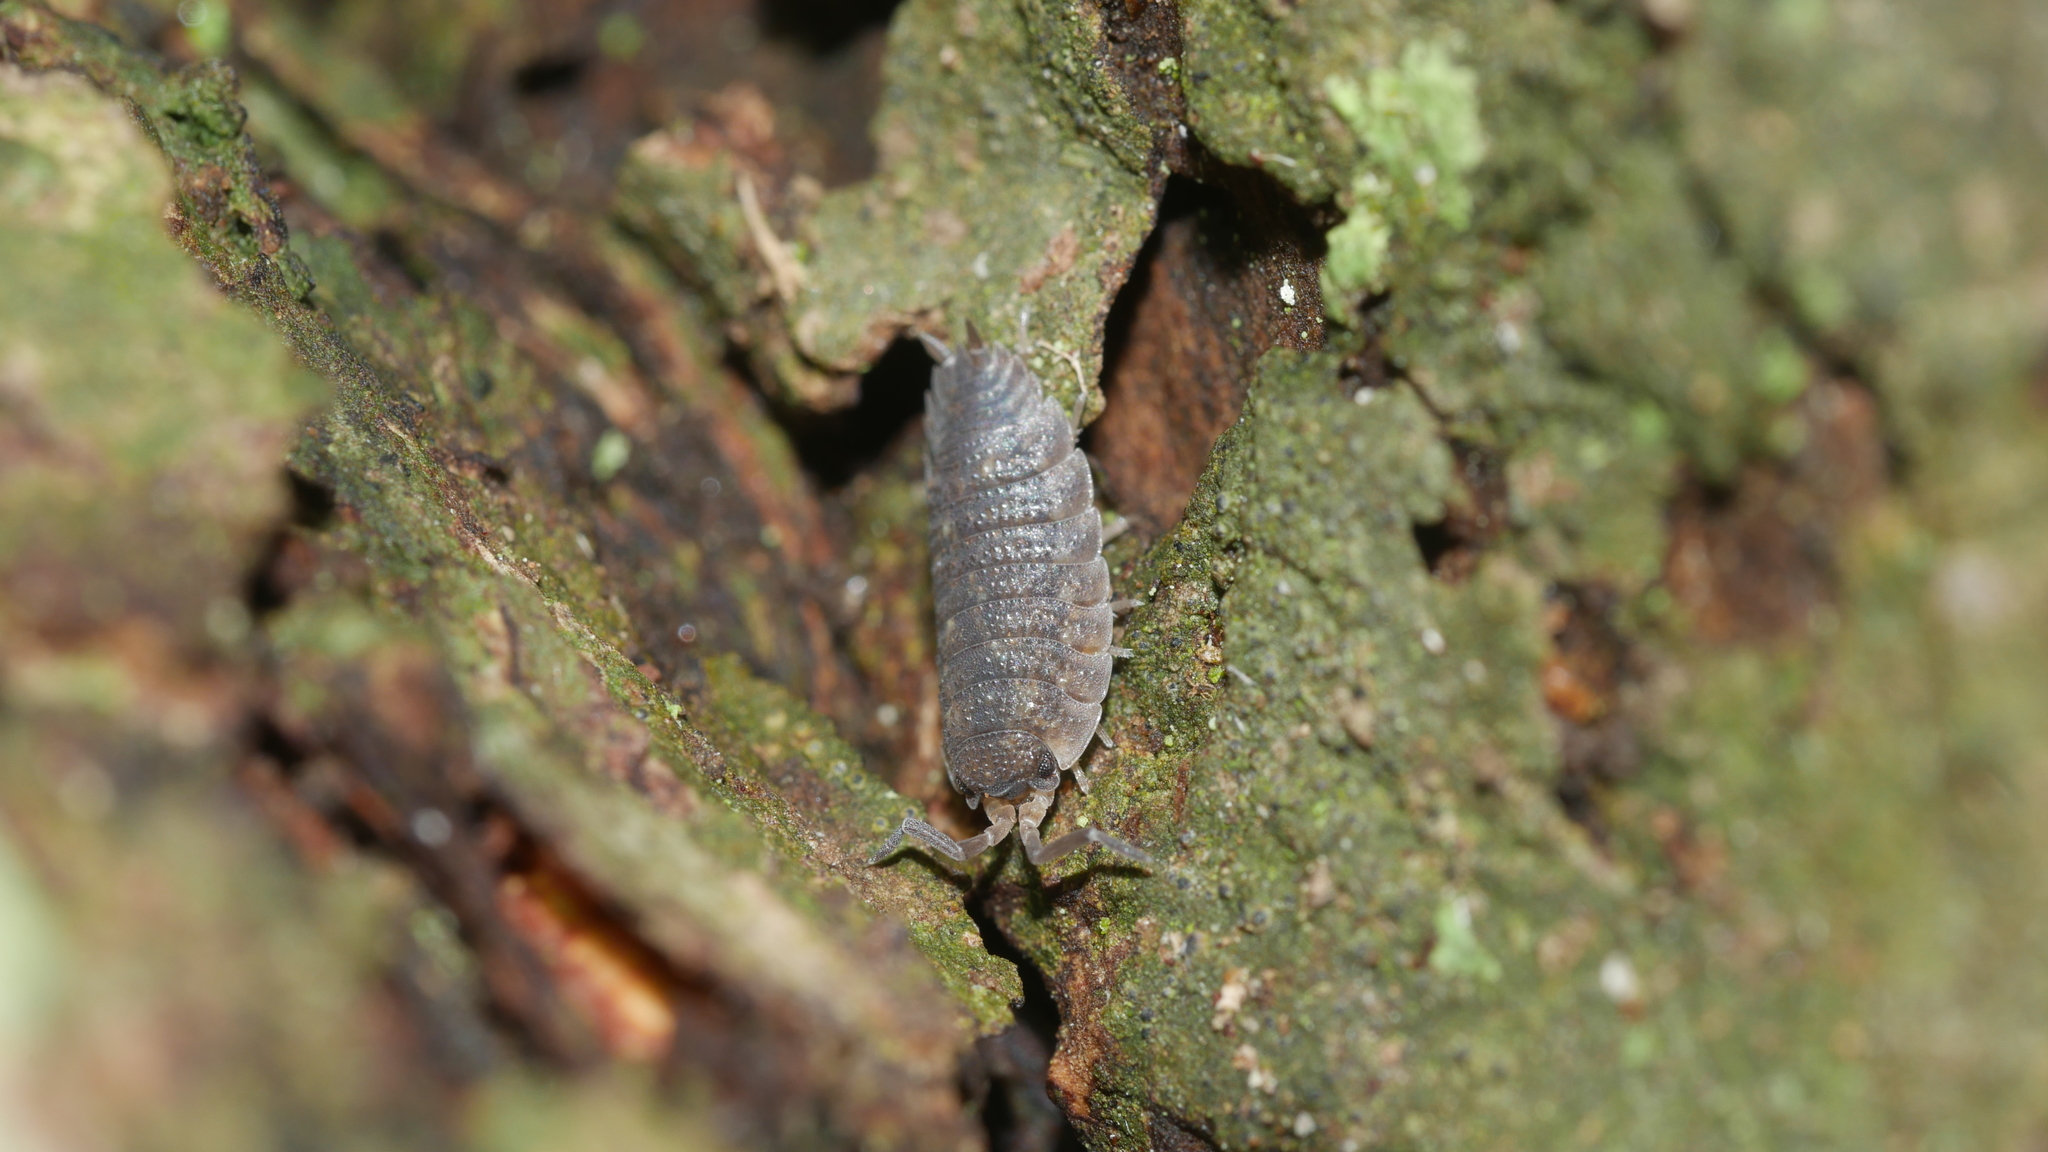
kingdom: Animalia
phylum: Arthropoda
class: Malacostraca
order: Isopoda
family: Porcellionidae
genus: Porcellio
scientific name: Porcellio scaber
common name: Common rough woodlouse
